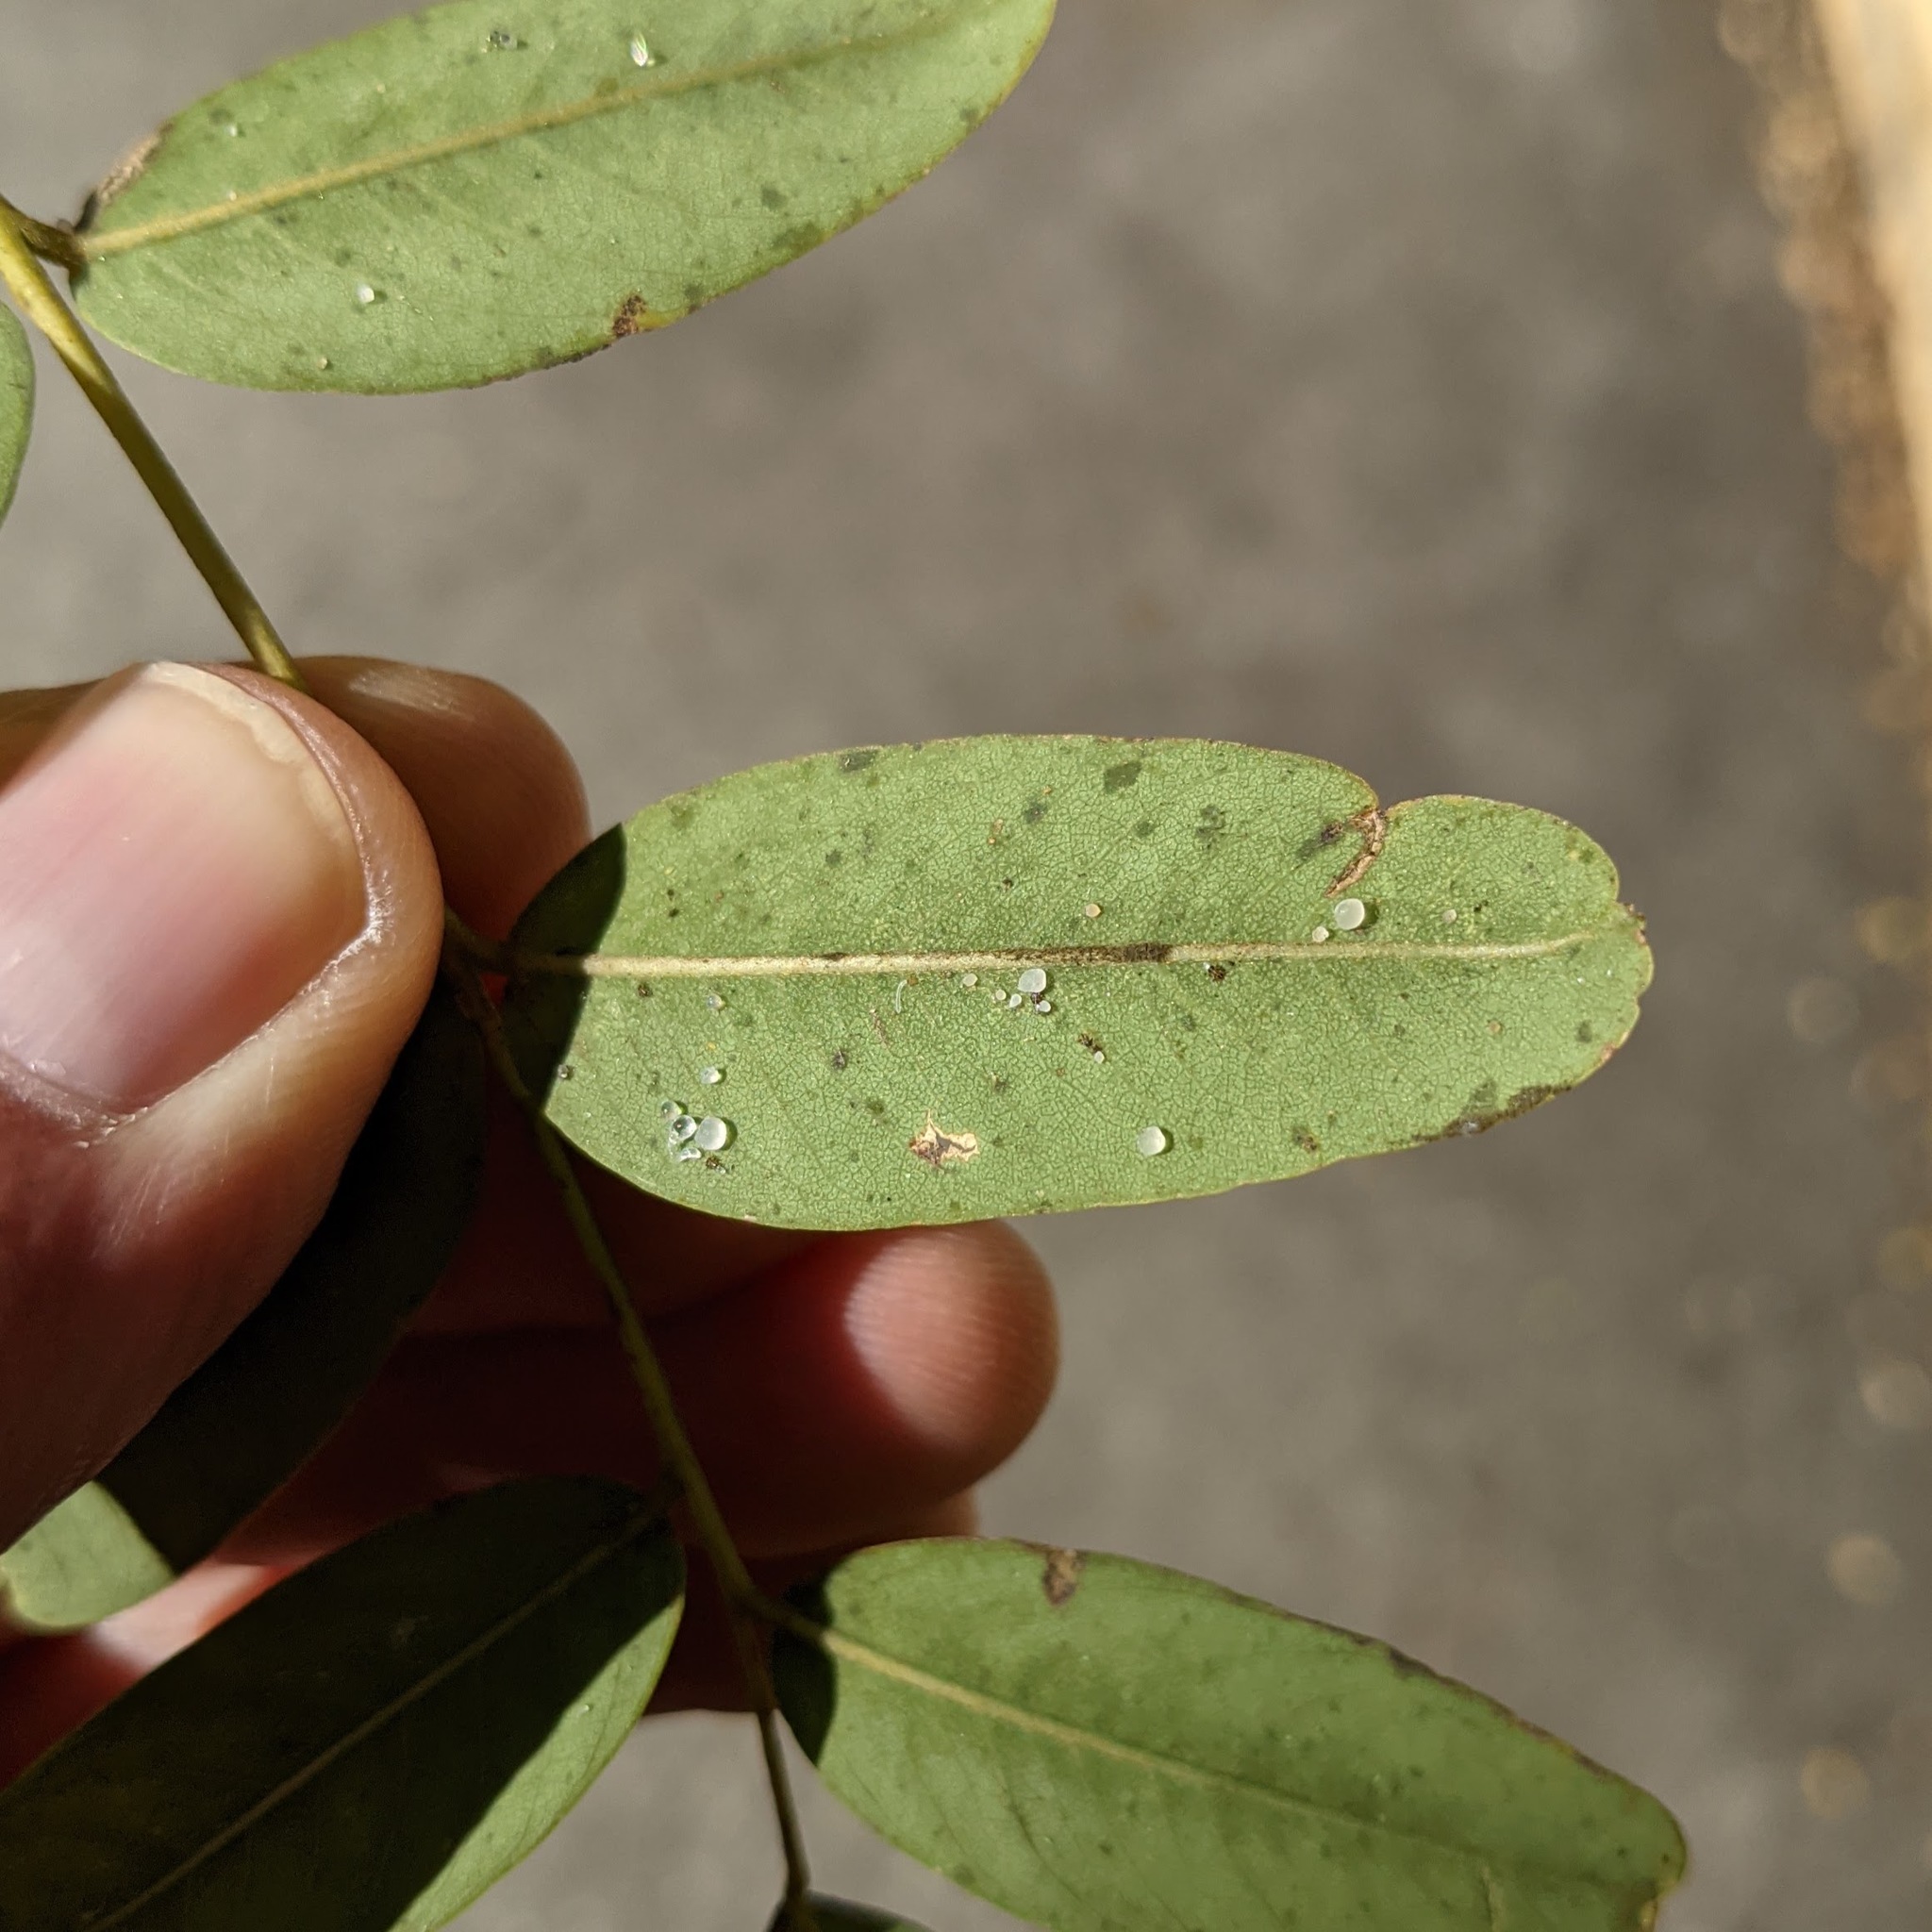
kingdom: Animalia
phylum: Arthropoda
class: Insecta
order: Hemiptera
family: Psyllidae
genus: Platycorypha
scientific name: Platycorypha nigrivirga
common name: Tipu psyllid
